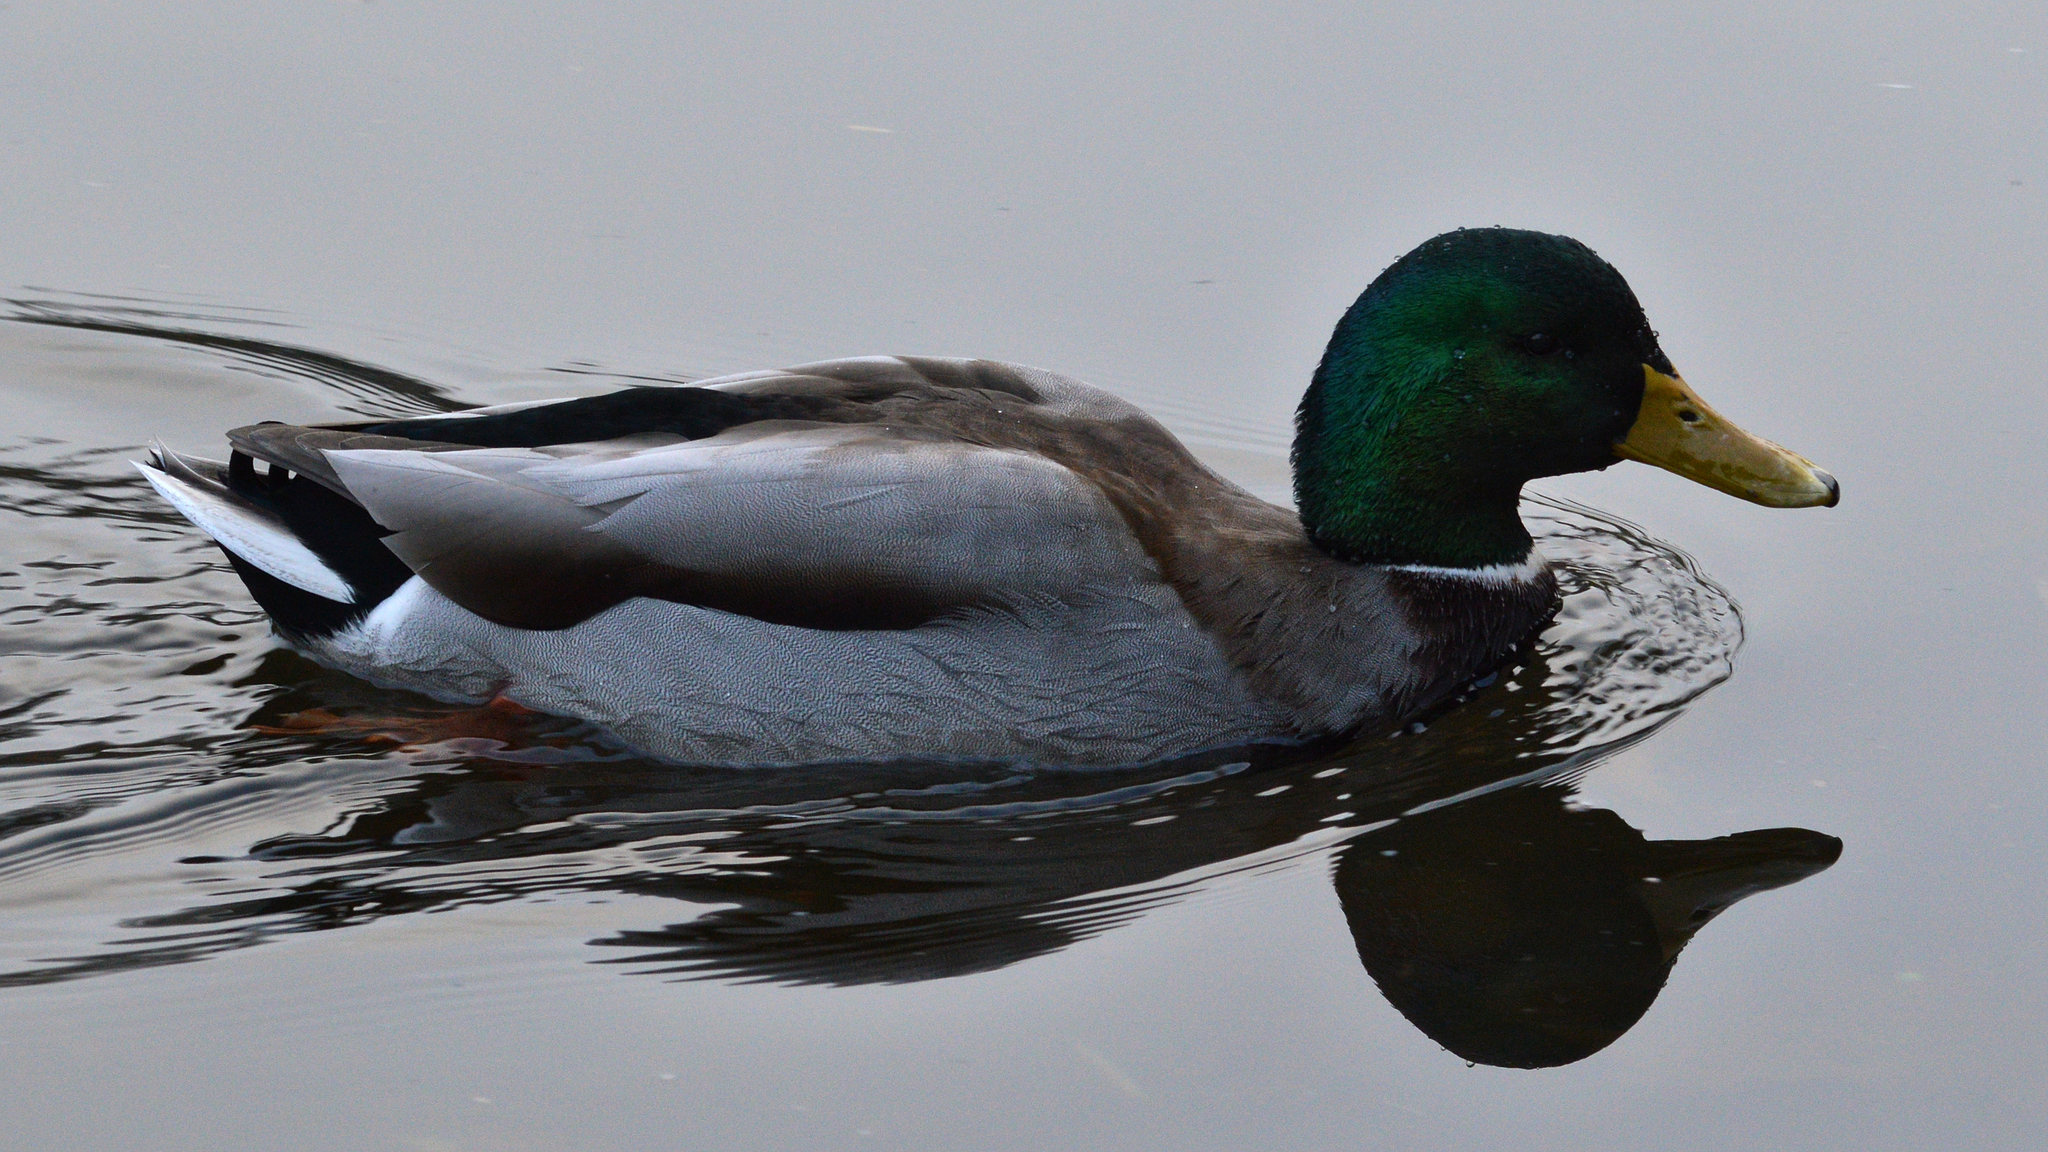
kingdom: Animalia
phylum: Chordata
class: Aves
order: Anseriformes
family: Anatidae
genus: Anas
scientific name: Anas platyrhynchos
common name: Mallard
